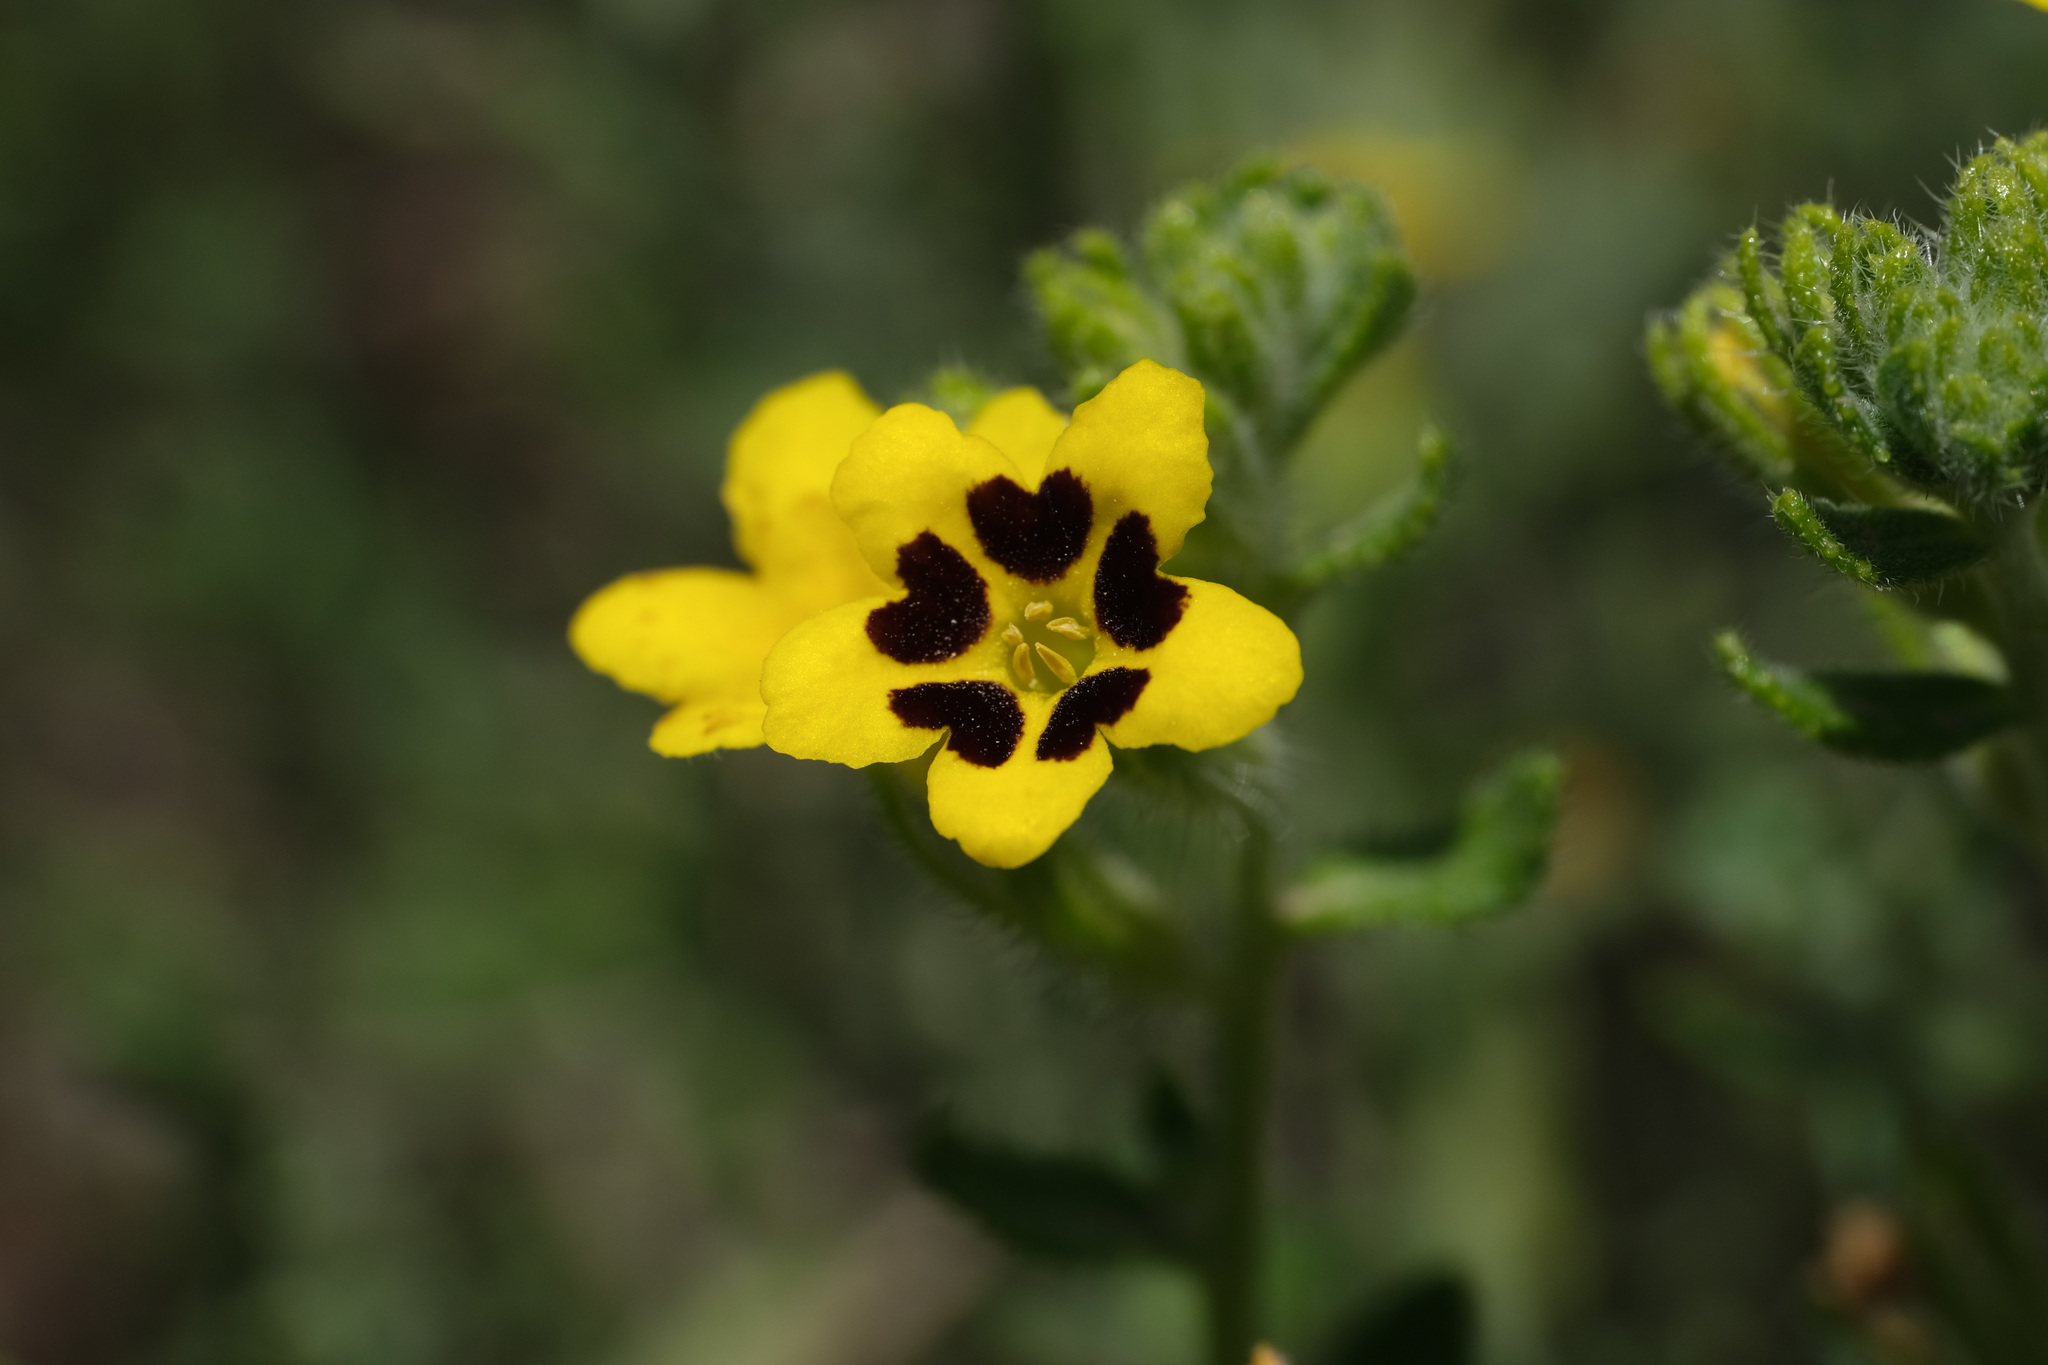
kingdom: Plantae
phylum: Tracheophyta
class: Magnoliopsida
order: Boraginales
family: Boraginaceae
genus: Arnebia
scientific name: Arnebia szechenyi
